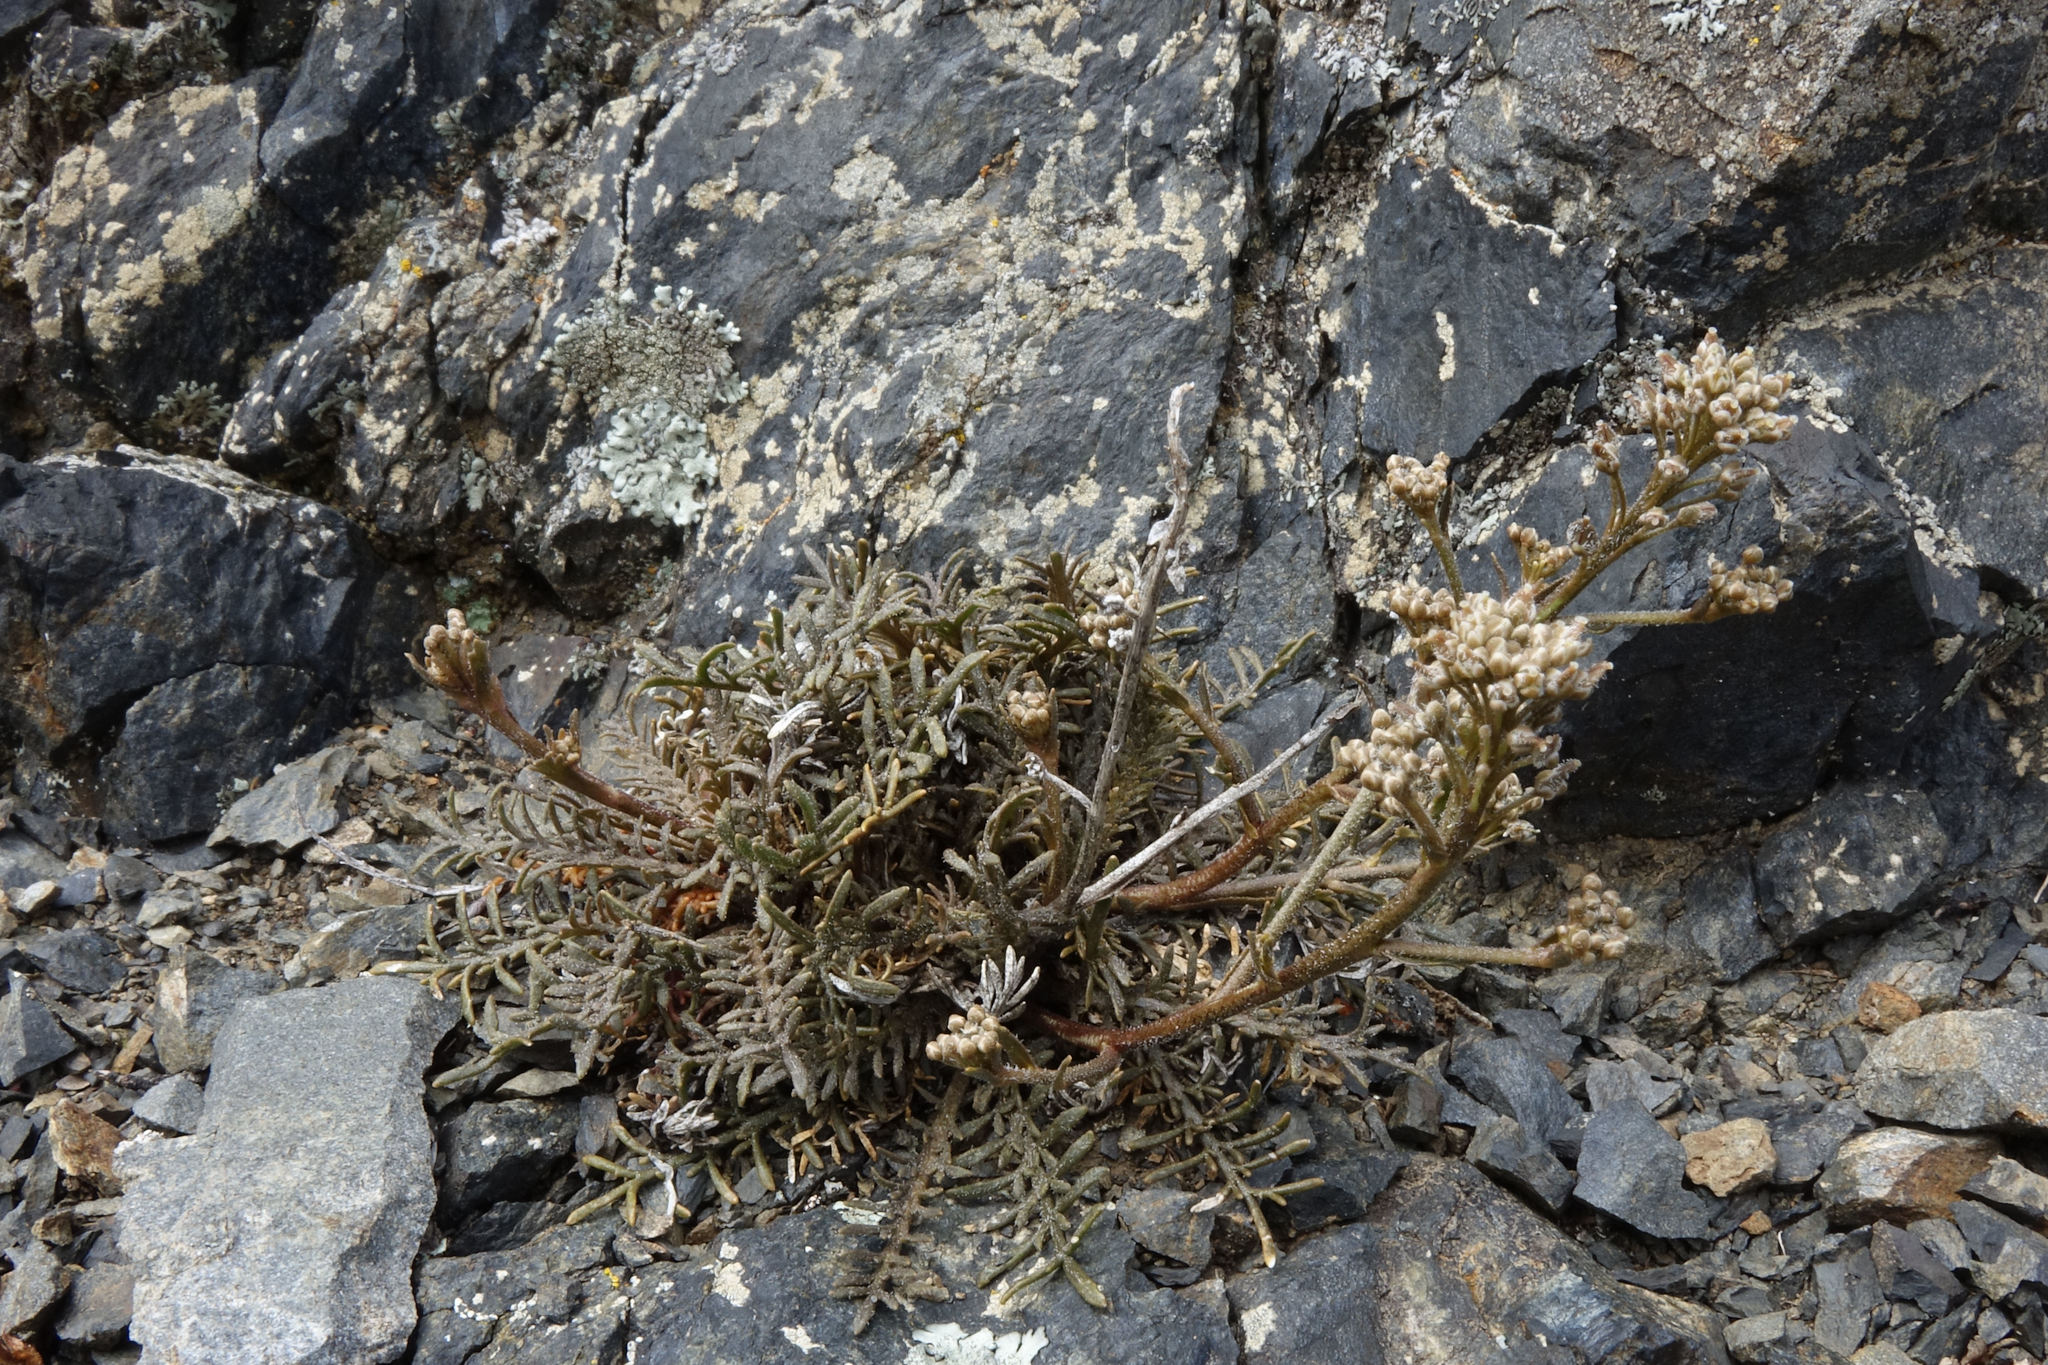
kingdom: Plantae
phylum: Tracheophyta
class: Magnoliopsida
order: Brassicales
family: Brassicaceae
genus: Lepidium
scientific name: Lepidium sisymbrioides
